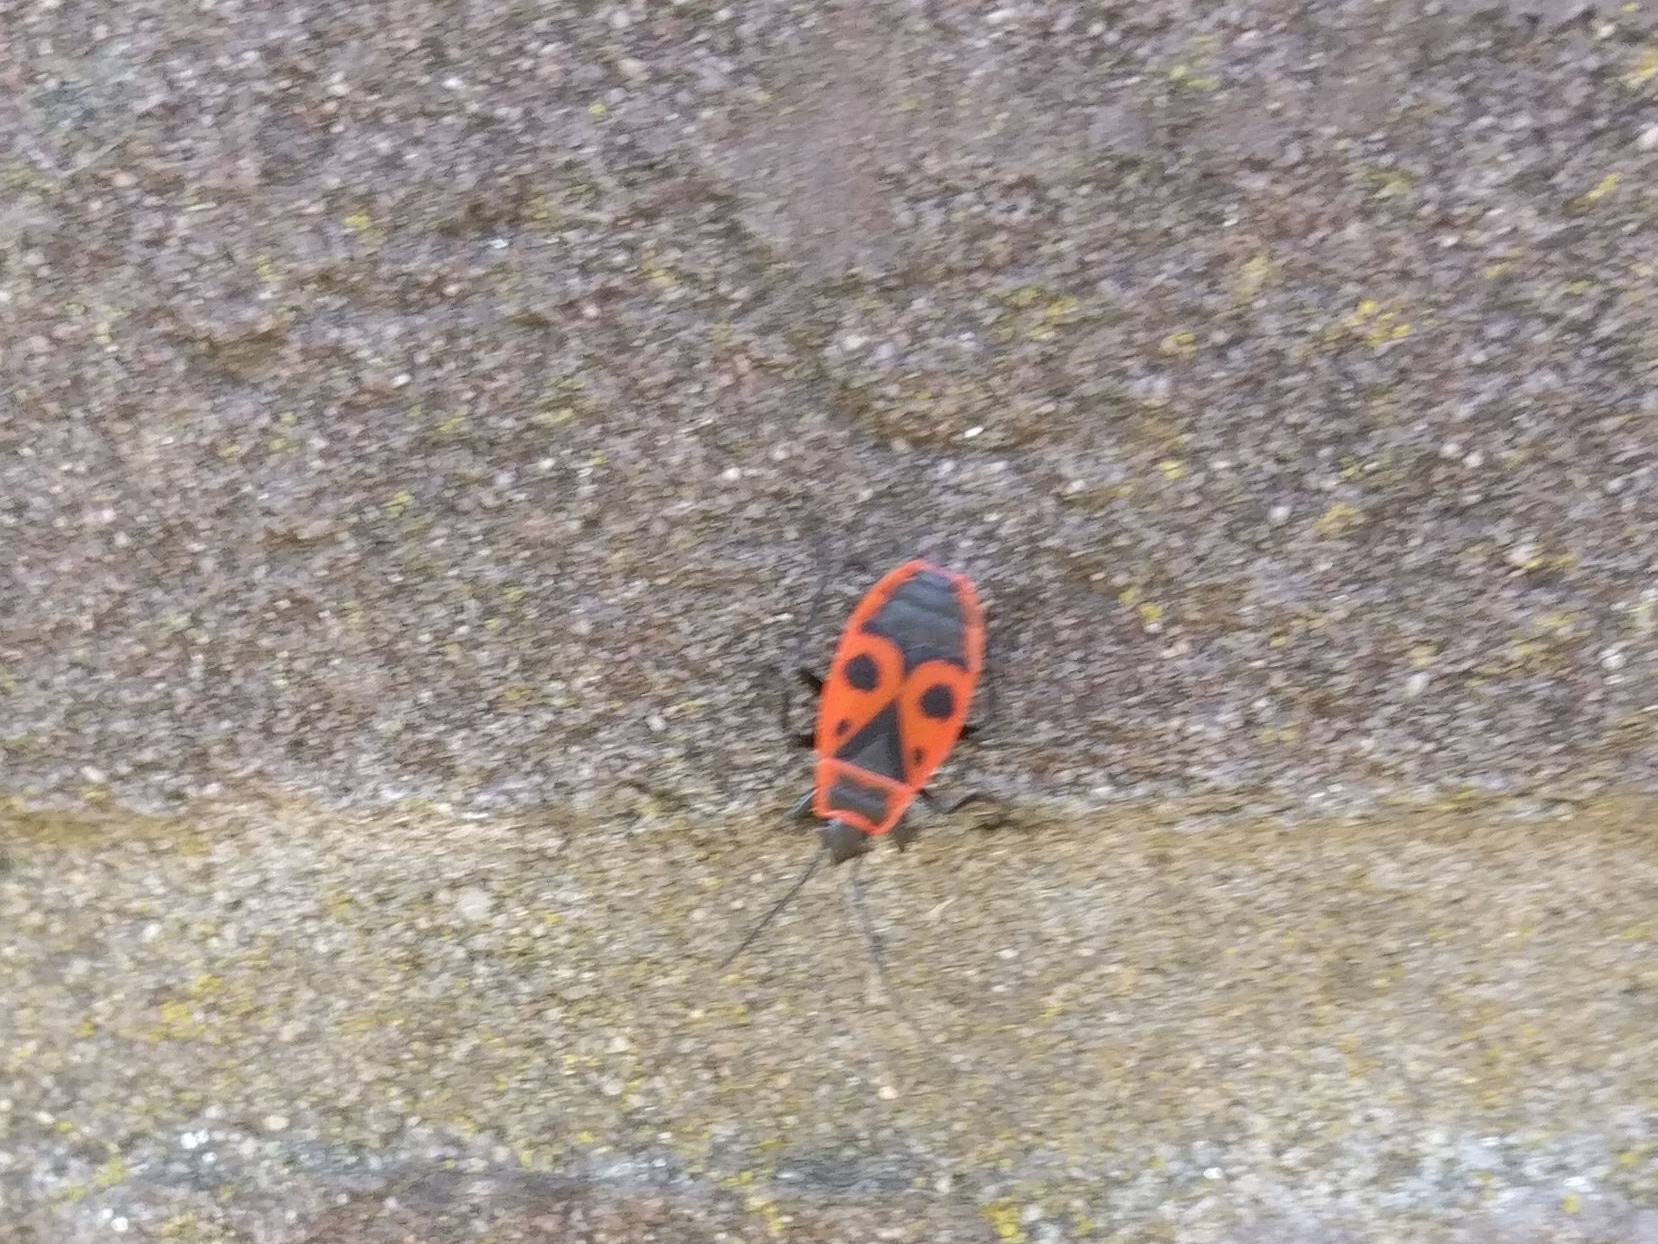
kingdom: Animalia
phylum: Arthropoda
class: Insecta
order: Hemiptera
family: Pyrrhocoridae
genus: Pyrrhocoris
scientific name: Pyrrhocoris apterus
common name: Firebug
